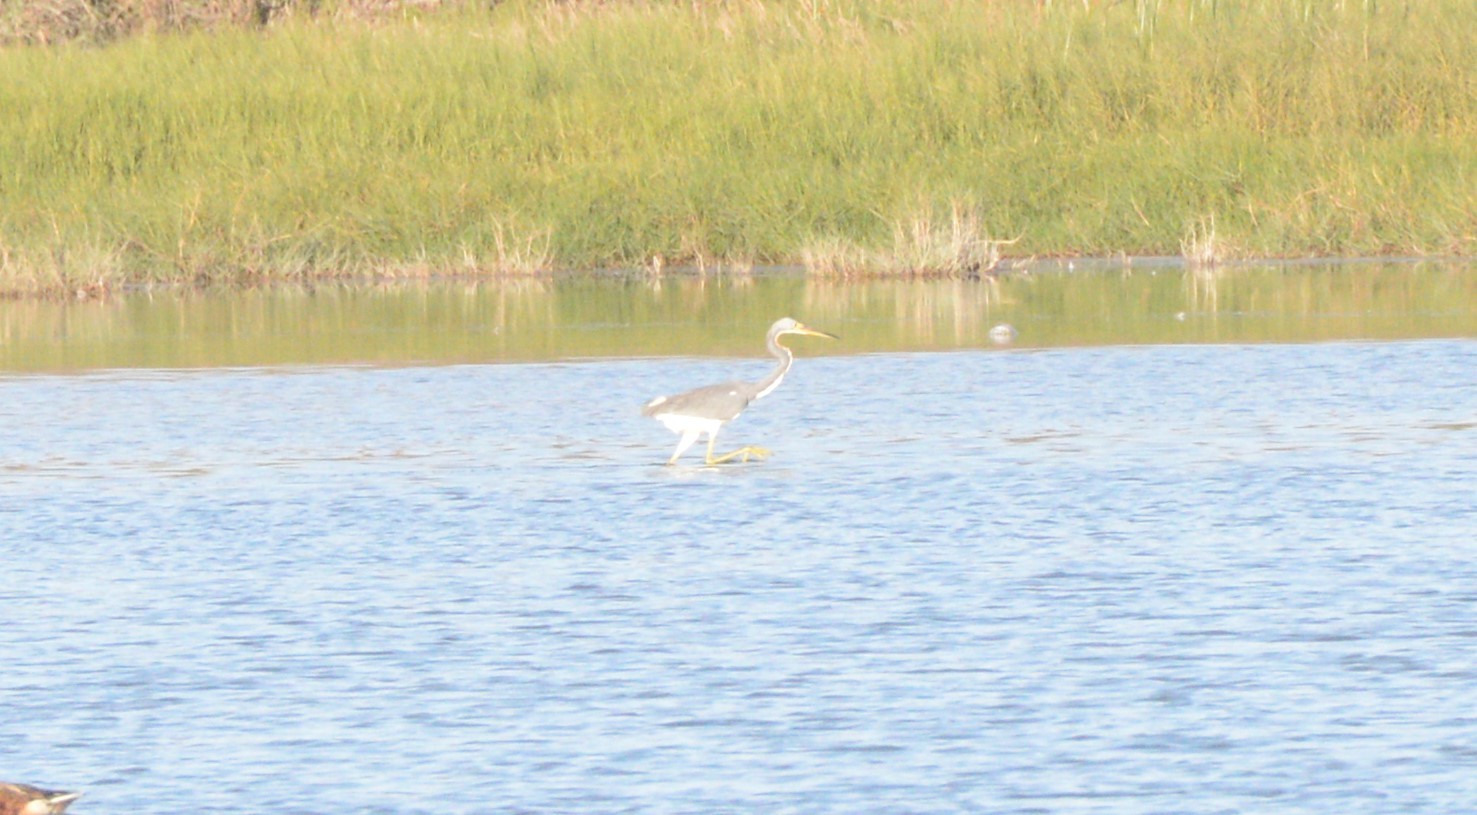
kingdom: Animalia
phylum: Chordata
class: Aves
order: Pelecaniformes
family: Ardeidae
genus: Egretta
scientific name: Egretta tricolor
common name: Tricolored heron
